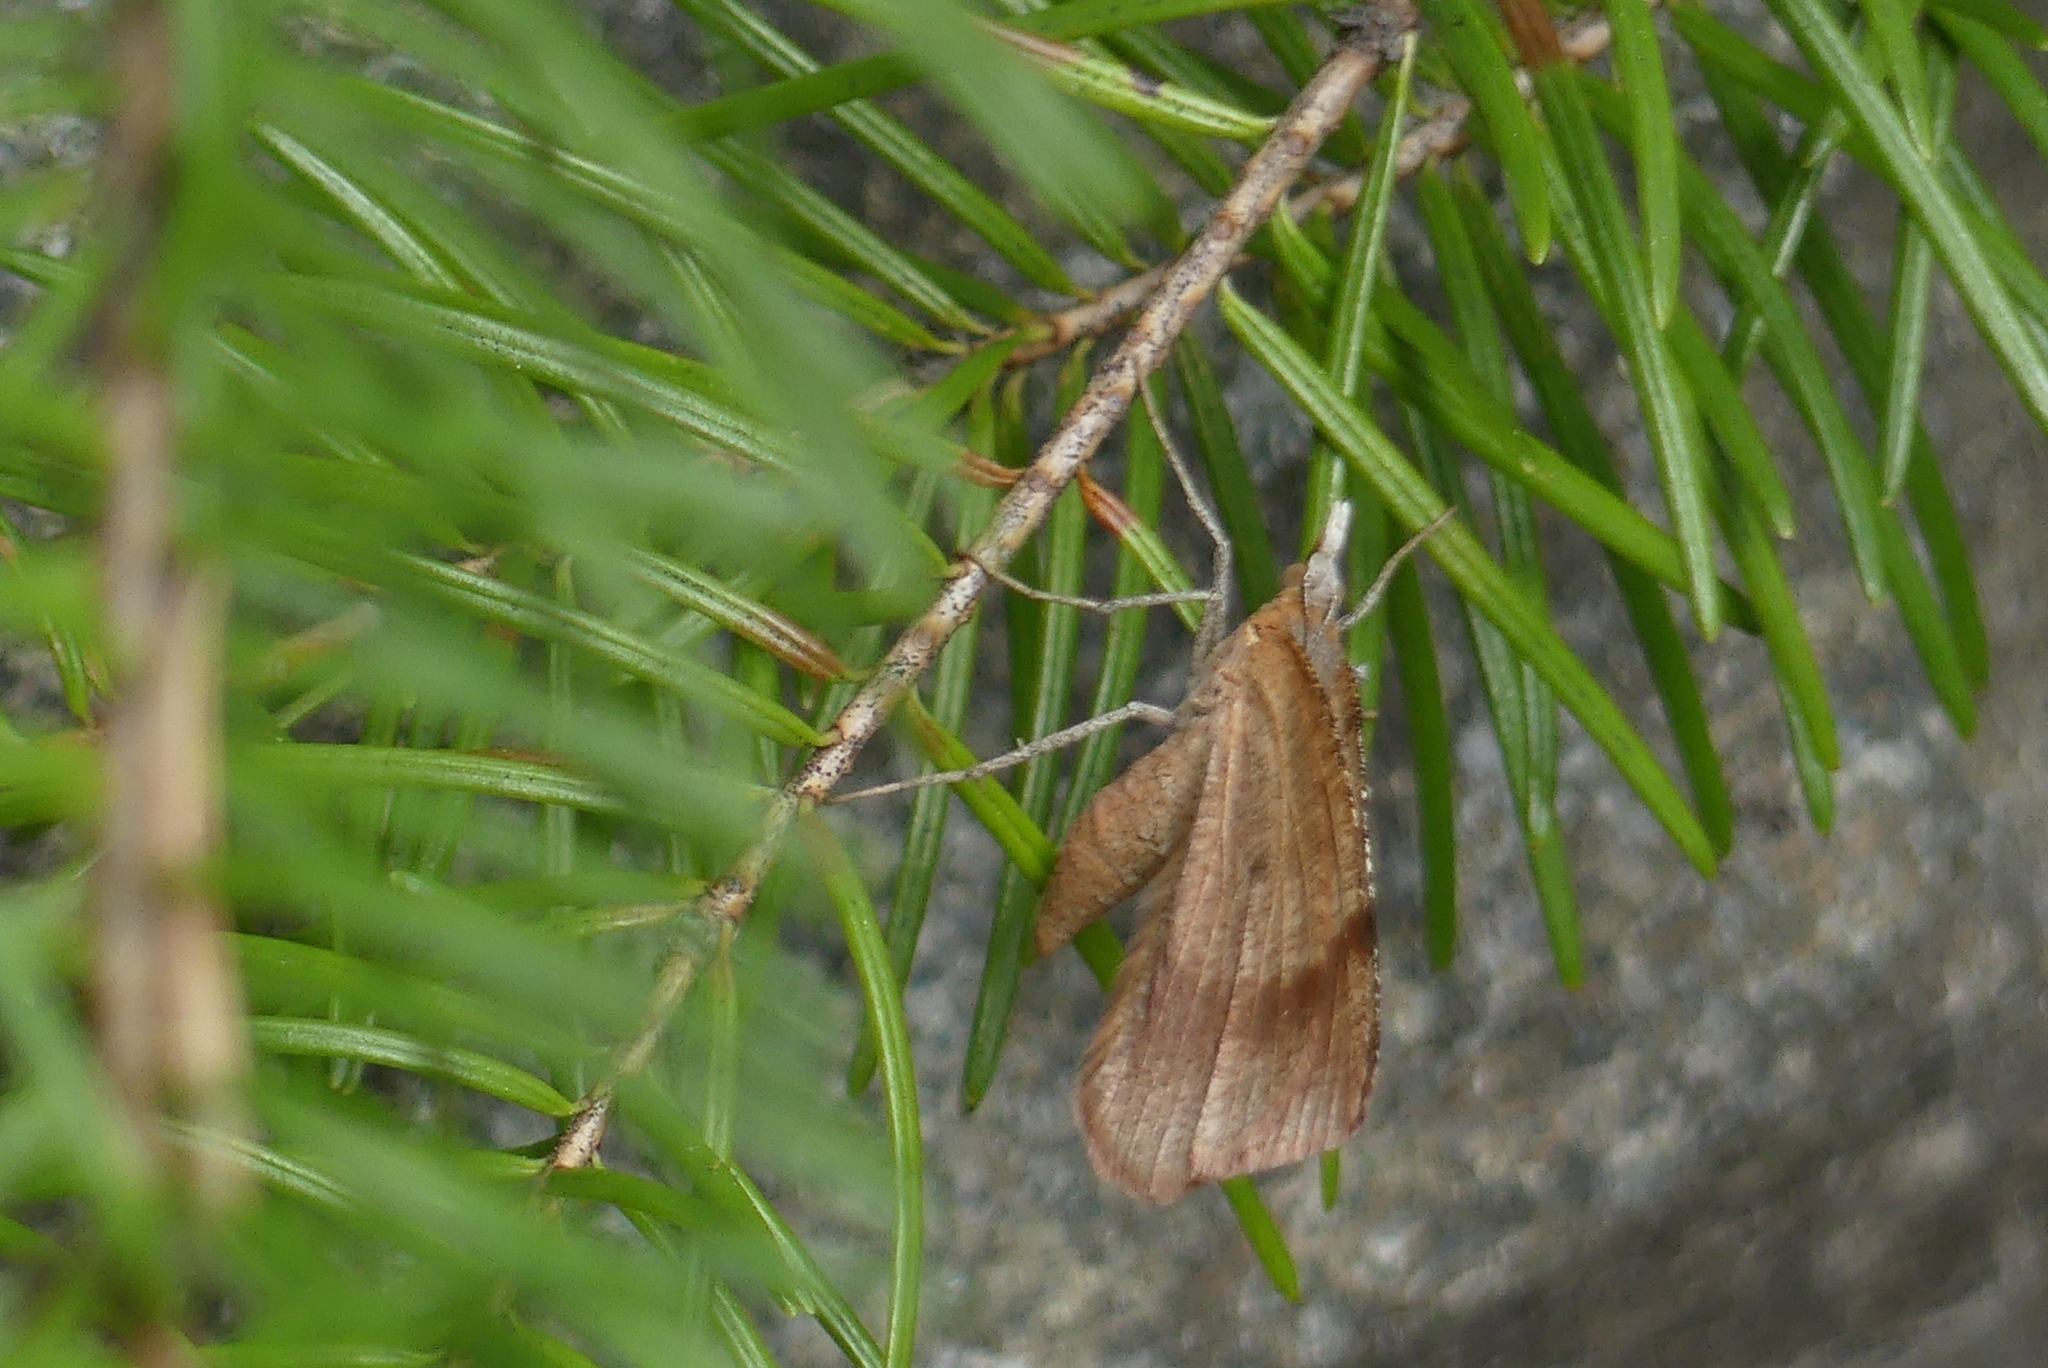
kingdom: Animalia
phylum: Arthropoda
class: Insecta
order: Lepidoptera
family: Geometridae
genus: Sericosema
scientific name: Sericosema juturnaria
